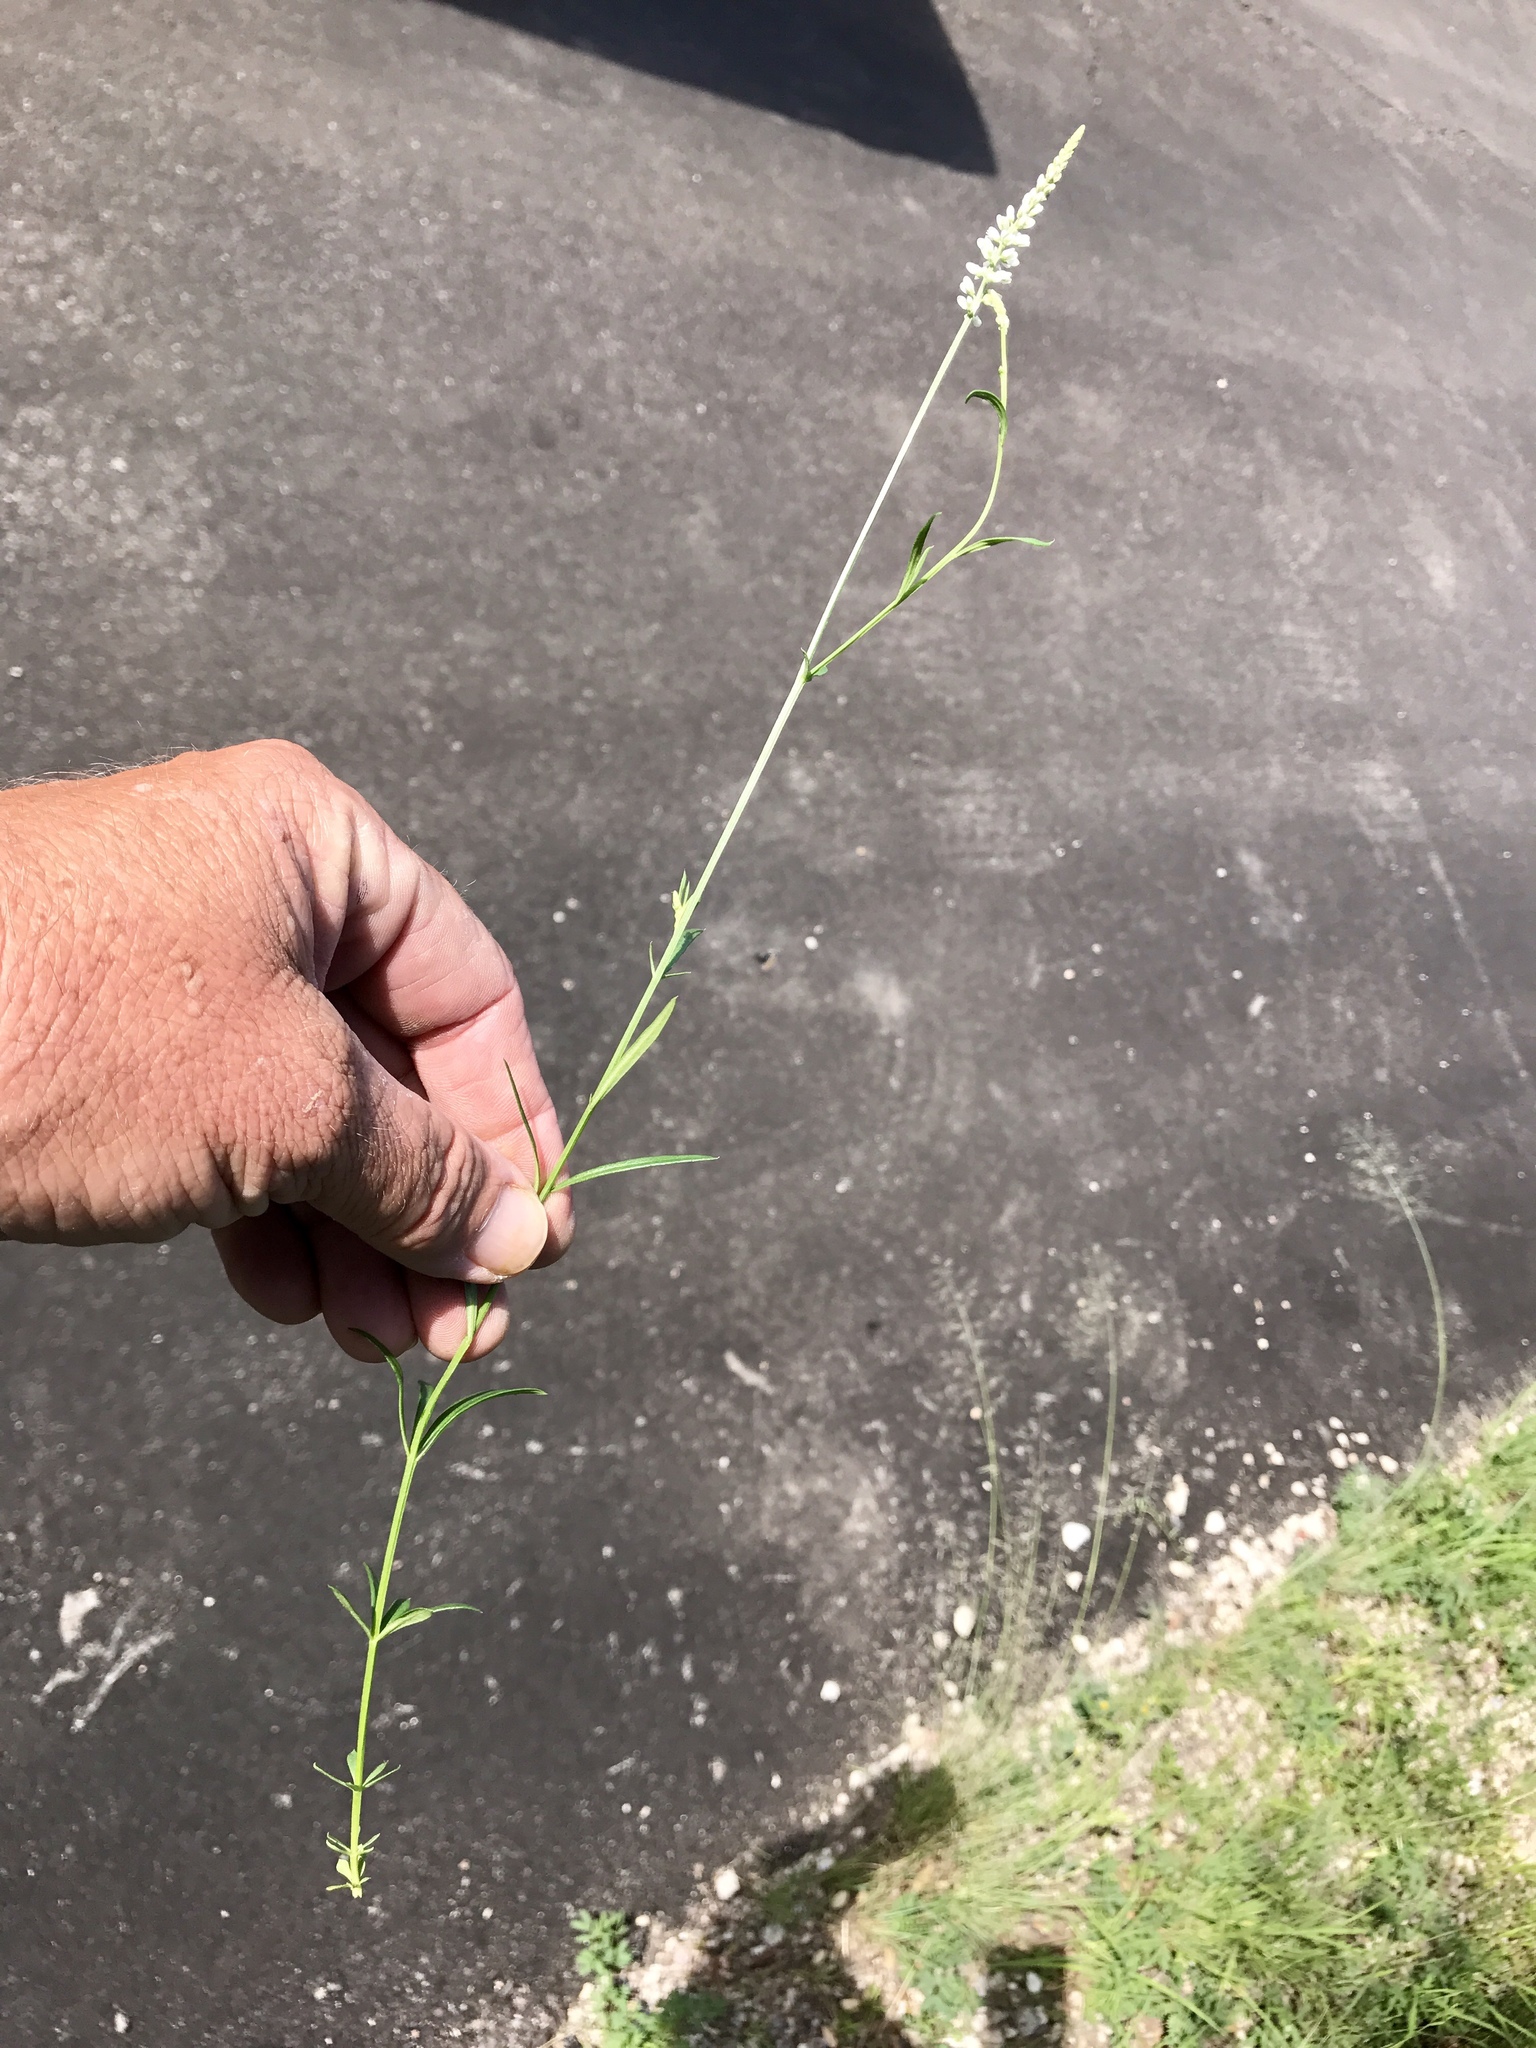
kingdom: Plantae
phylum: Tracheophyta
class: Magnoliopsida
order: Fabales
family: Polygalaceae
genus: Polygala
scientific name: Polygala alba
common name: White milkwort
